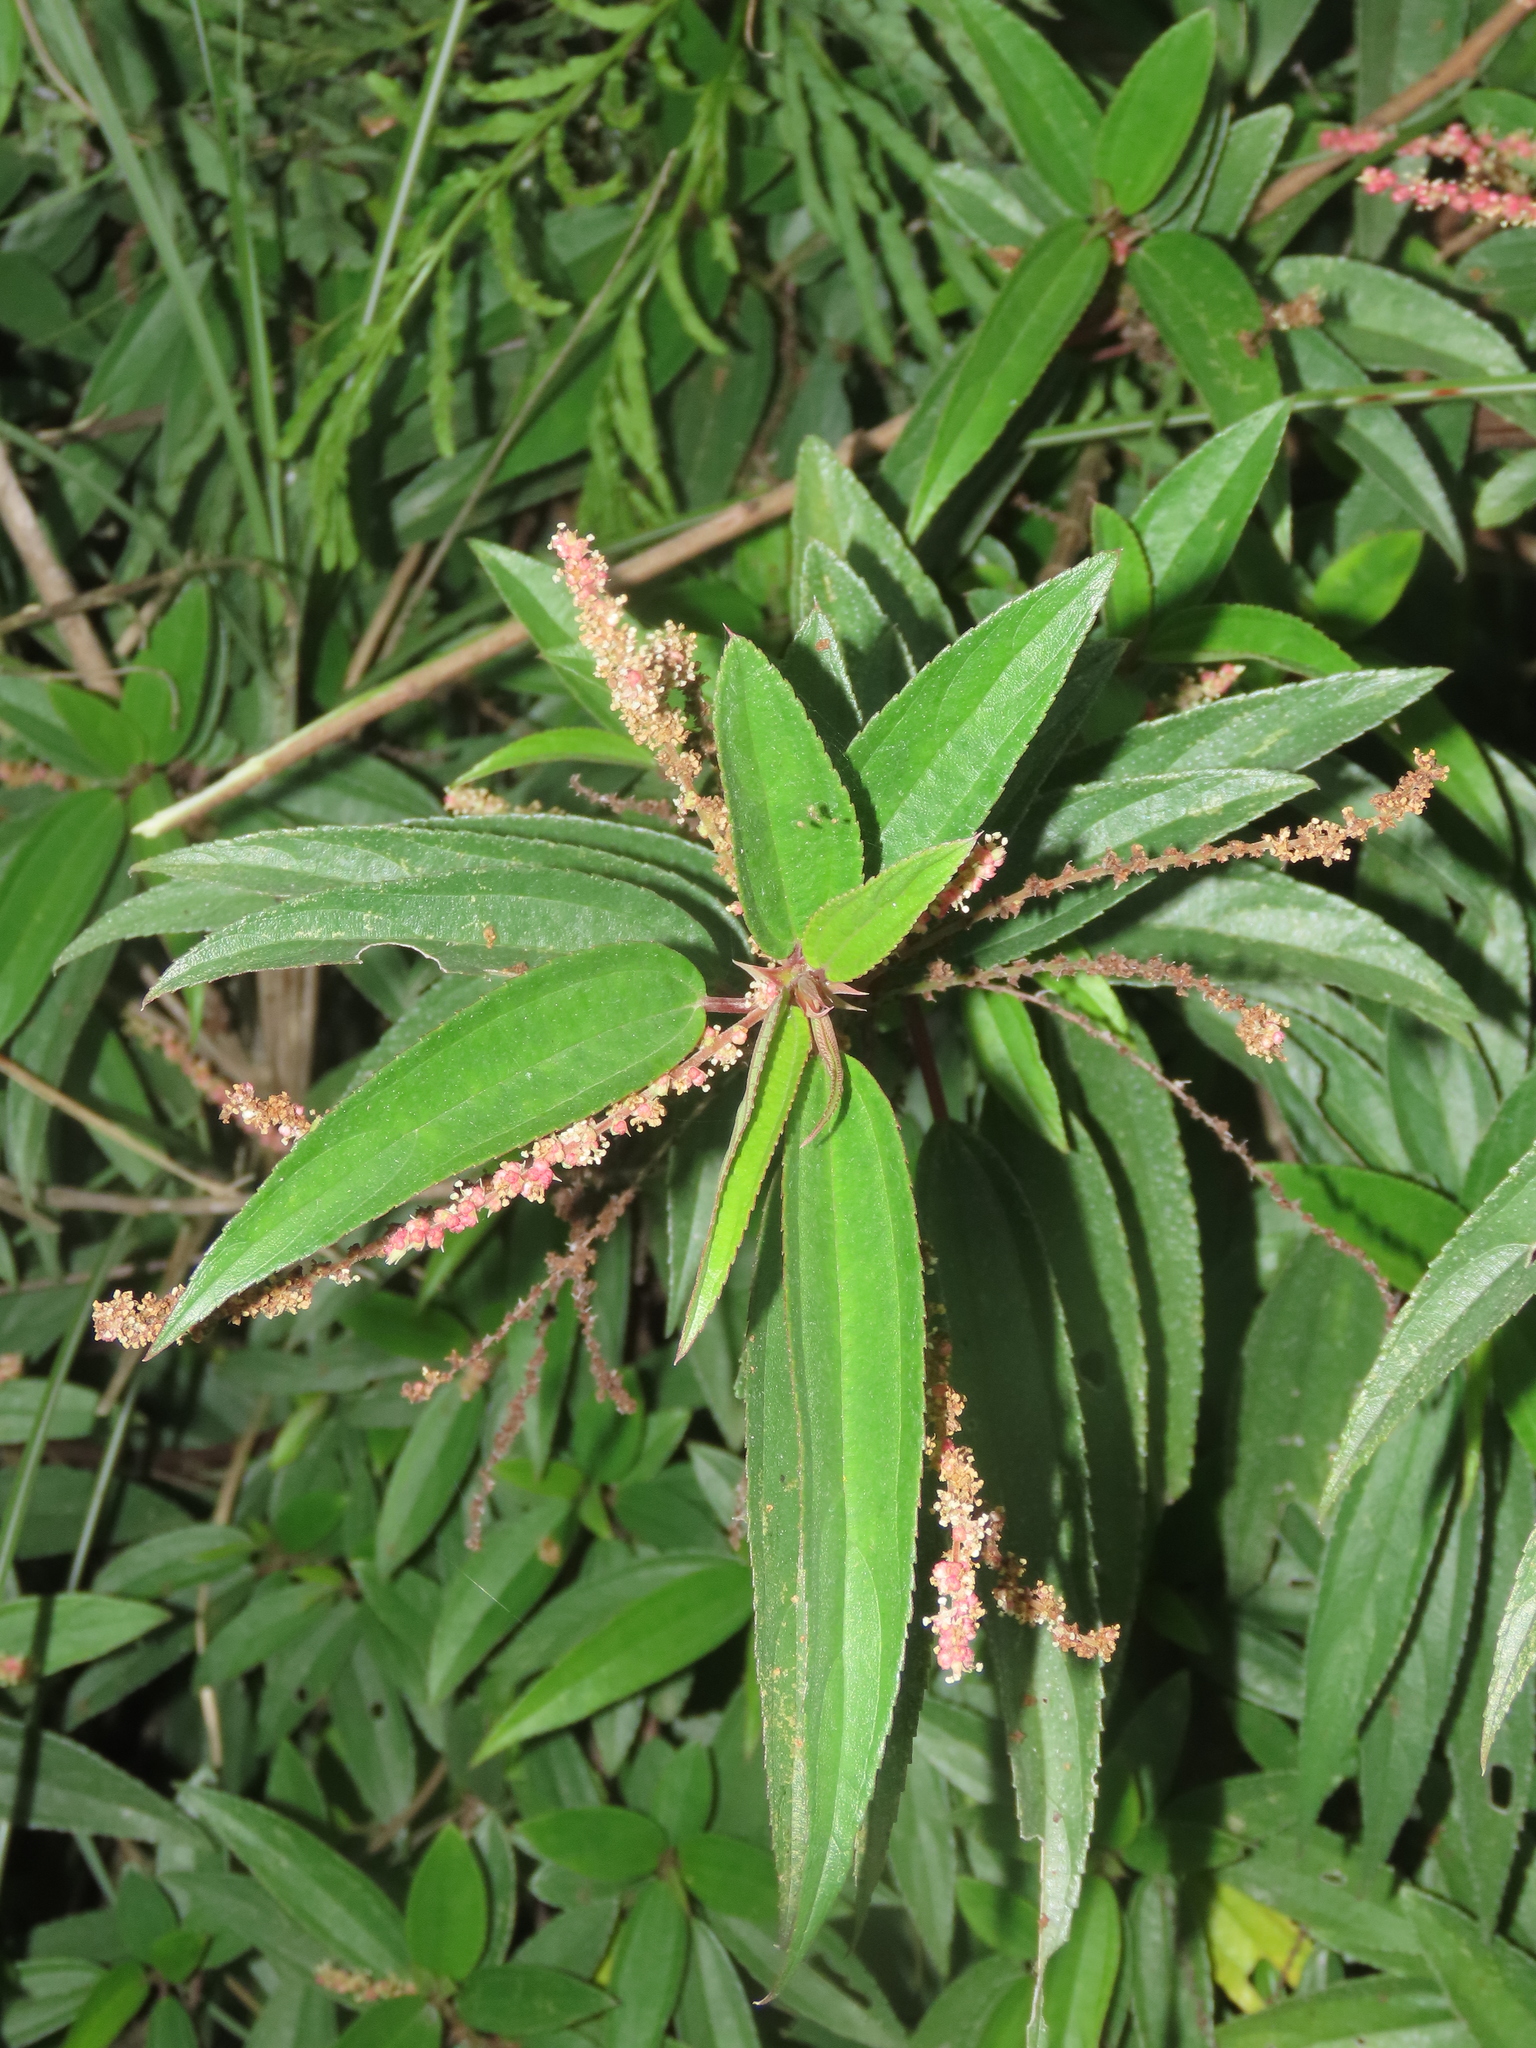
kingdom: Plantae
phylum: Tracheophyta
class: Magnoliopsida
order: Rosales
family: Urticaceae
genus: Boehmeria
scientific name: Boehmeria densiflora
